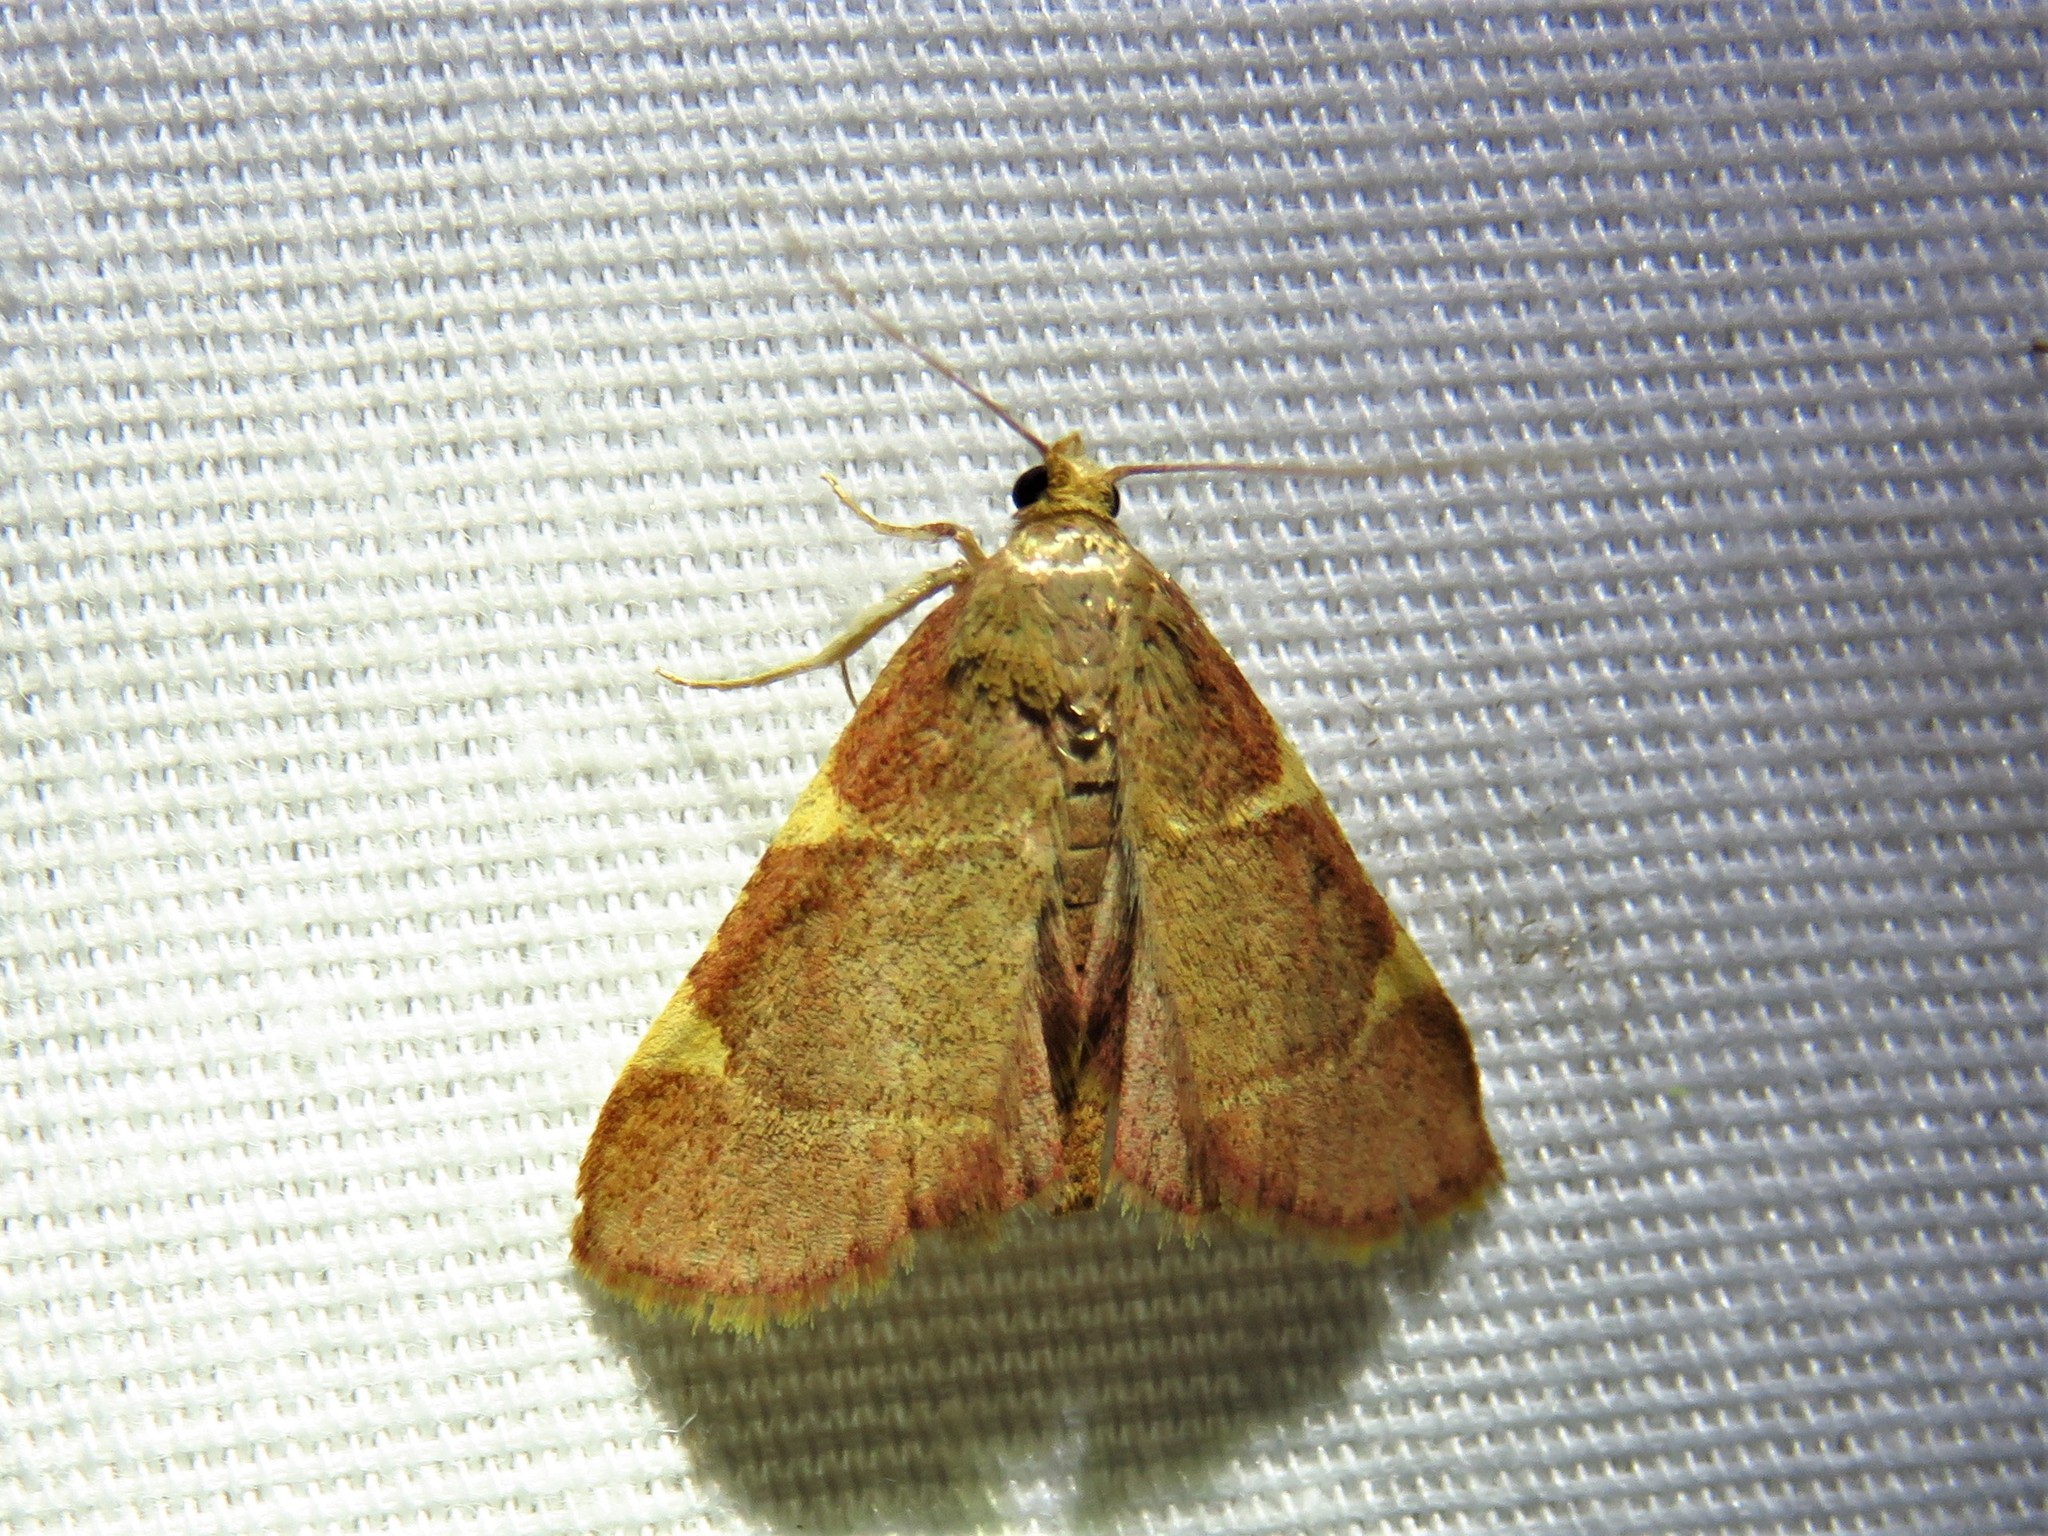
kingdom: Animalia
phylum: Arthropoda
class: Insecta
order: Lepidoptera
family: Pyralidae
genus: Hypsopygia
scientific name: Hypsopygia olinalis
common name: Yellow-fringed dolichomia moth
